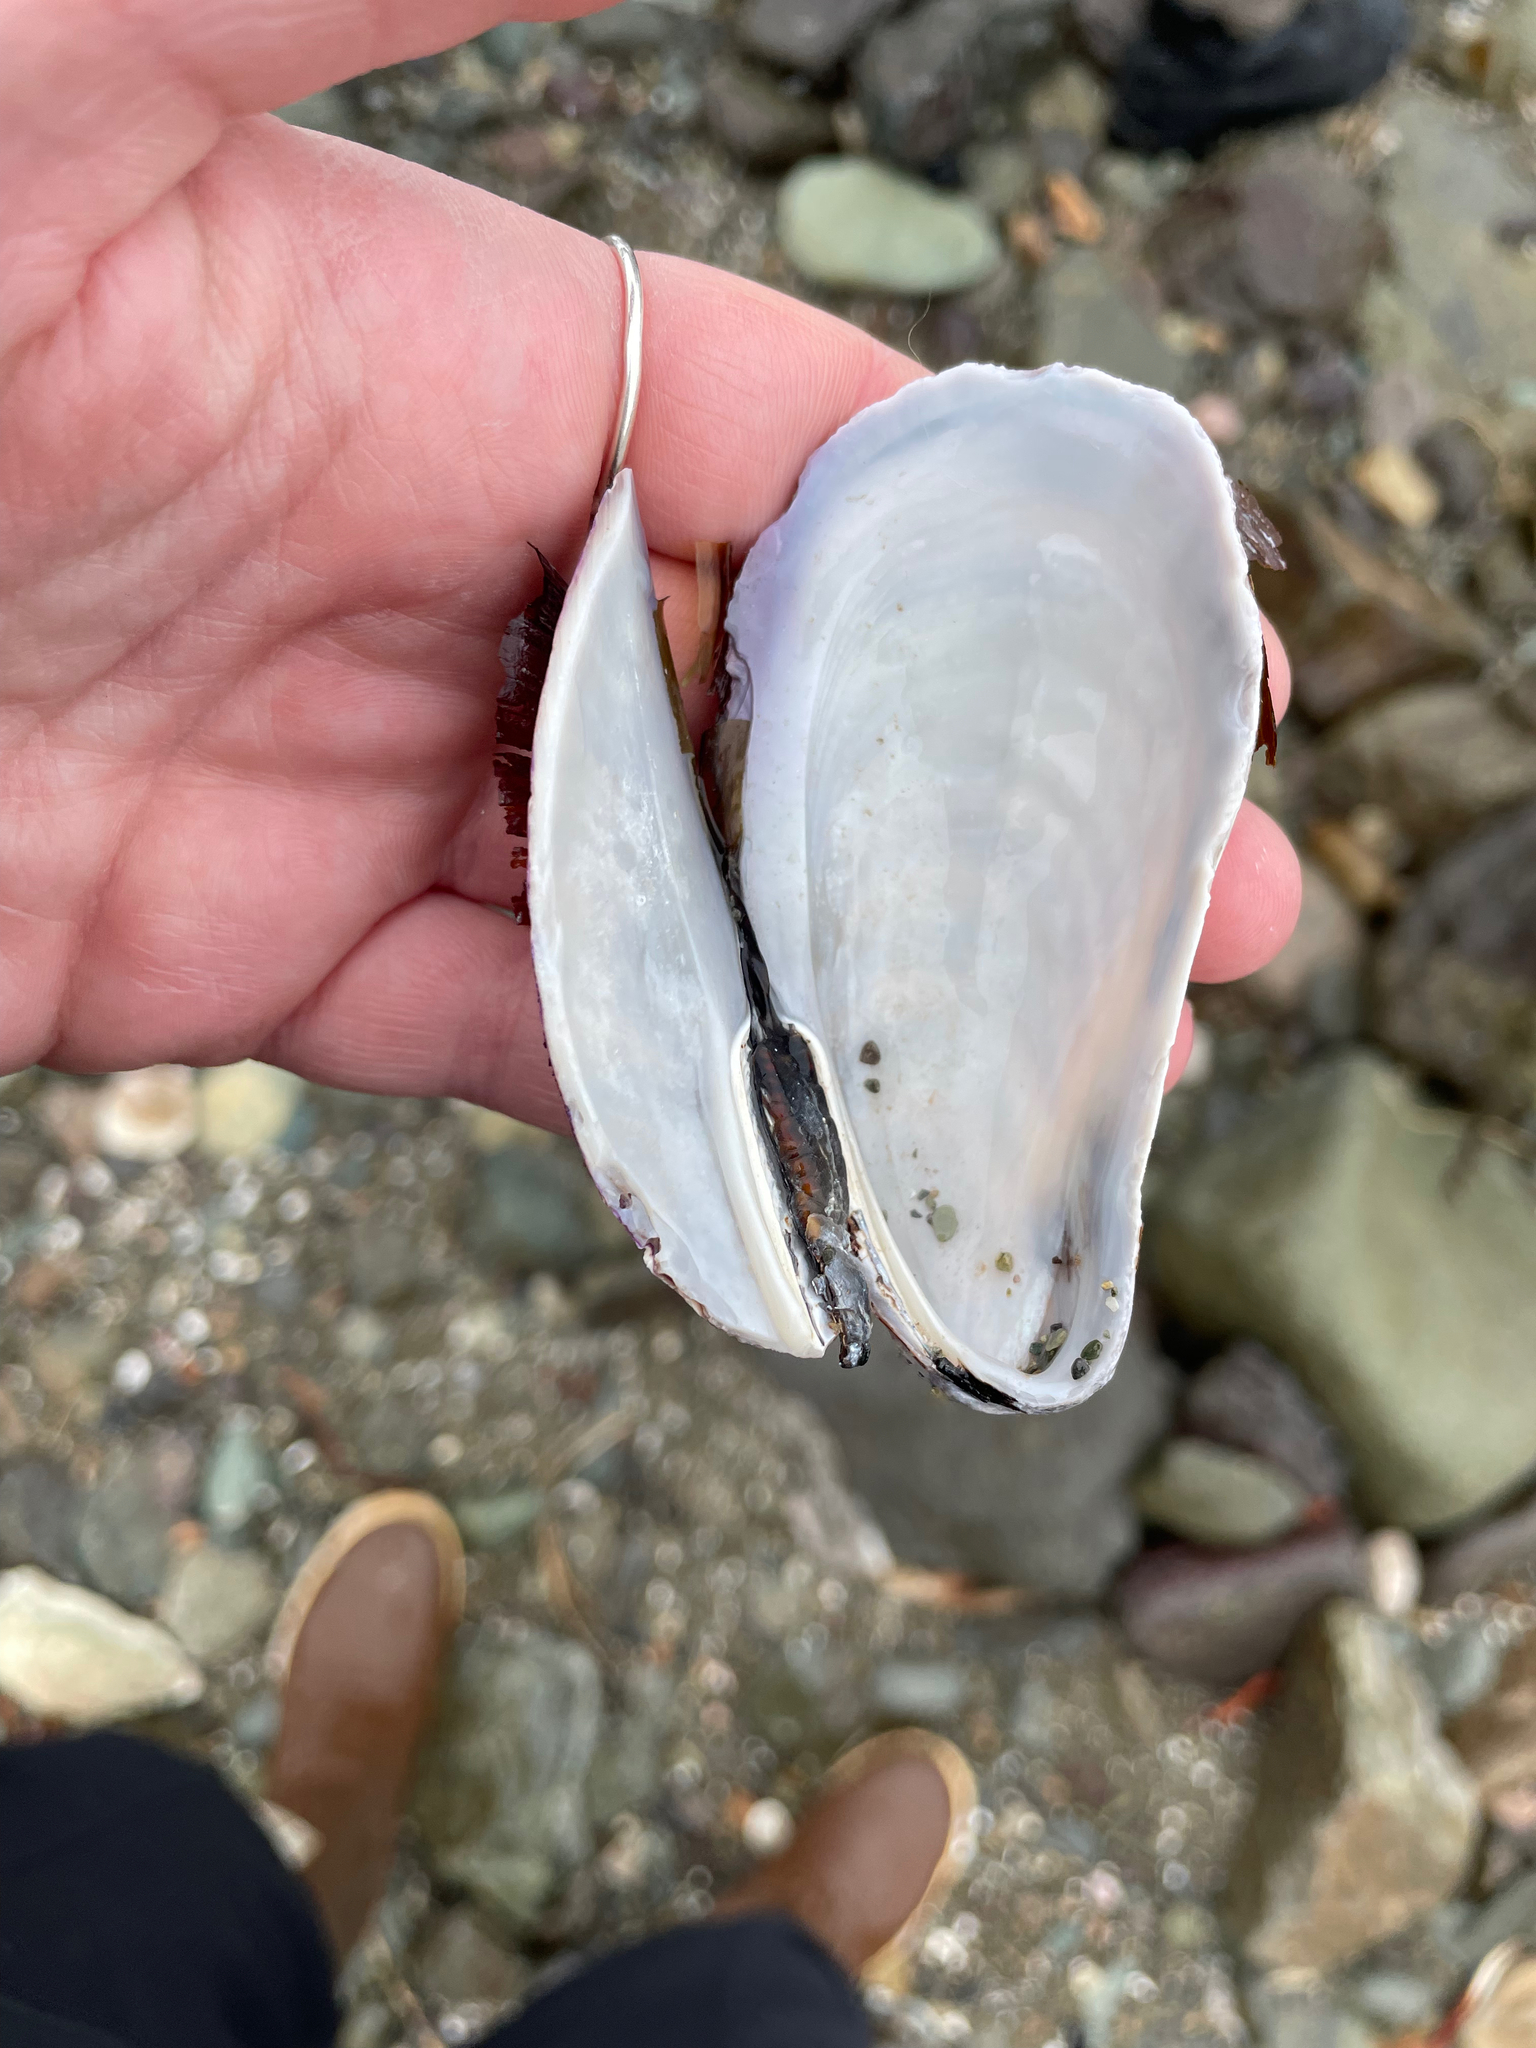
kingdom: Animalia
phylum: Mollusca
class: Bivalvia
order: Mytilida
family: Mytilidae
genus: Modiolus
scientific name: Modiolus modiolus
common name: Horse-mussel
